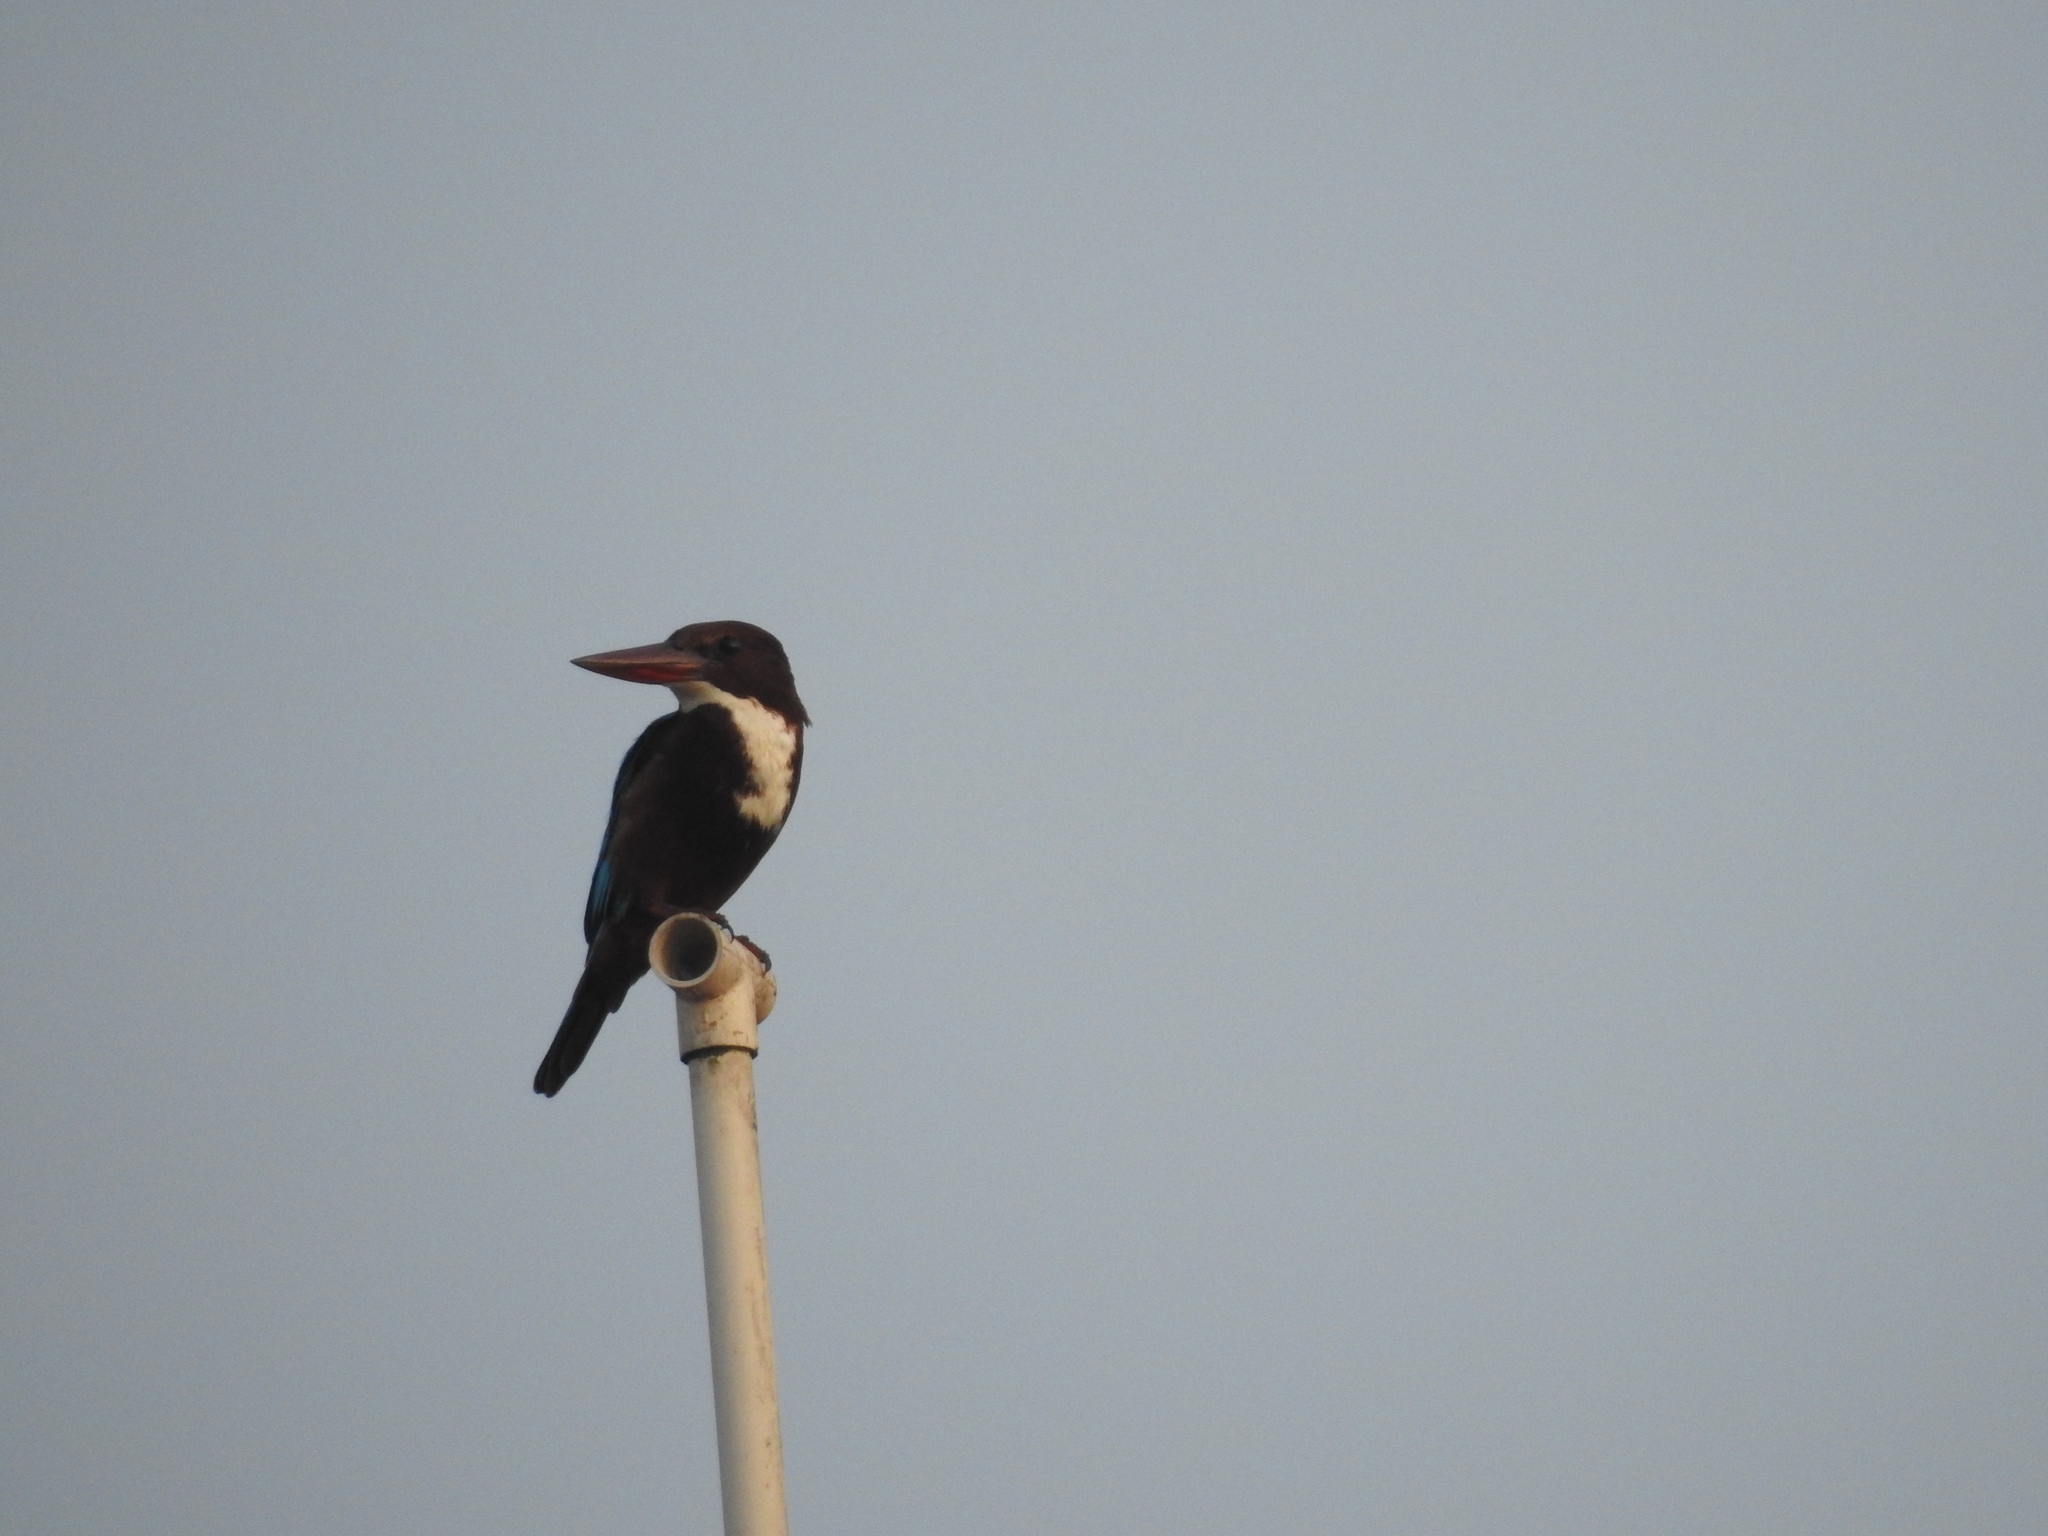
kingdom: Animalia
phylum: Chordata
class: Aves
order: Coraciiformes
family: Alcedinidae
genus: Halcyon
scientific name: Halcyon smyrnensis
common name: White-throated kingfisher
